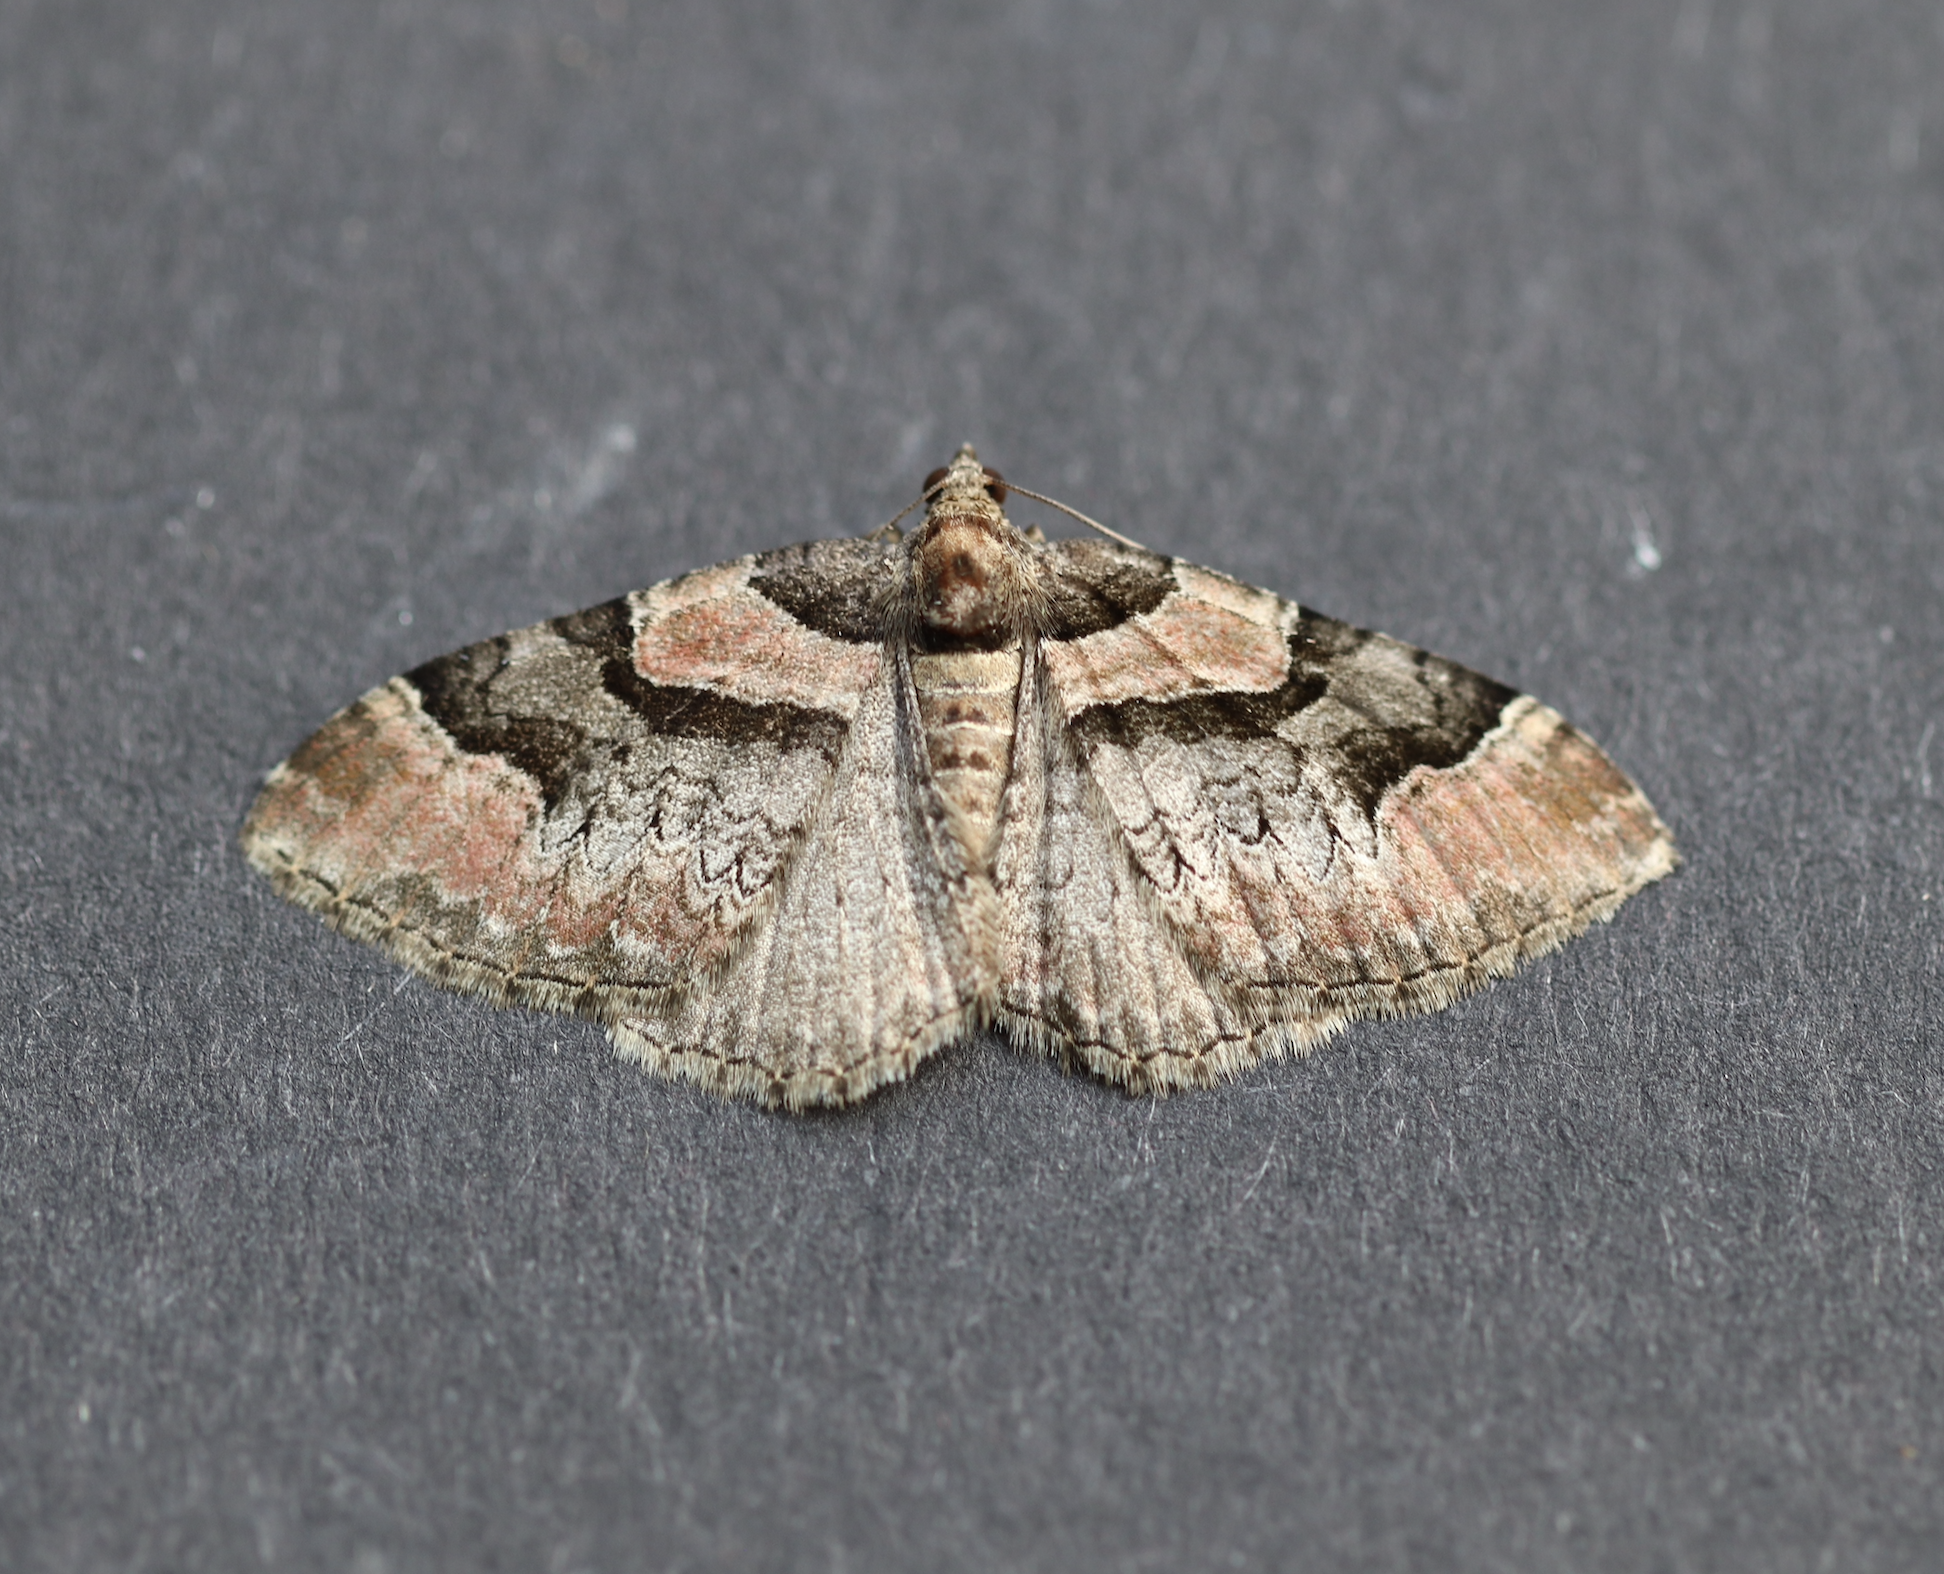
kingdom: Animalia
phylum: Arthropoda
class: Insecta
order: Lepidoptera
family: Geometridae
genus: Catarhoe
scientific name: Catarhoe rubidata
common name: Ruddy carpet
